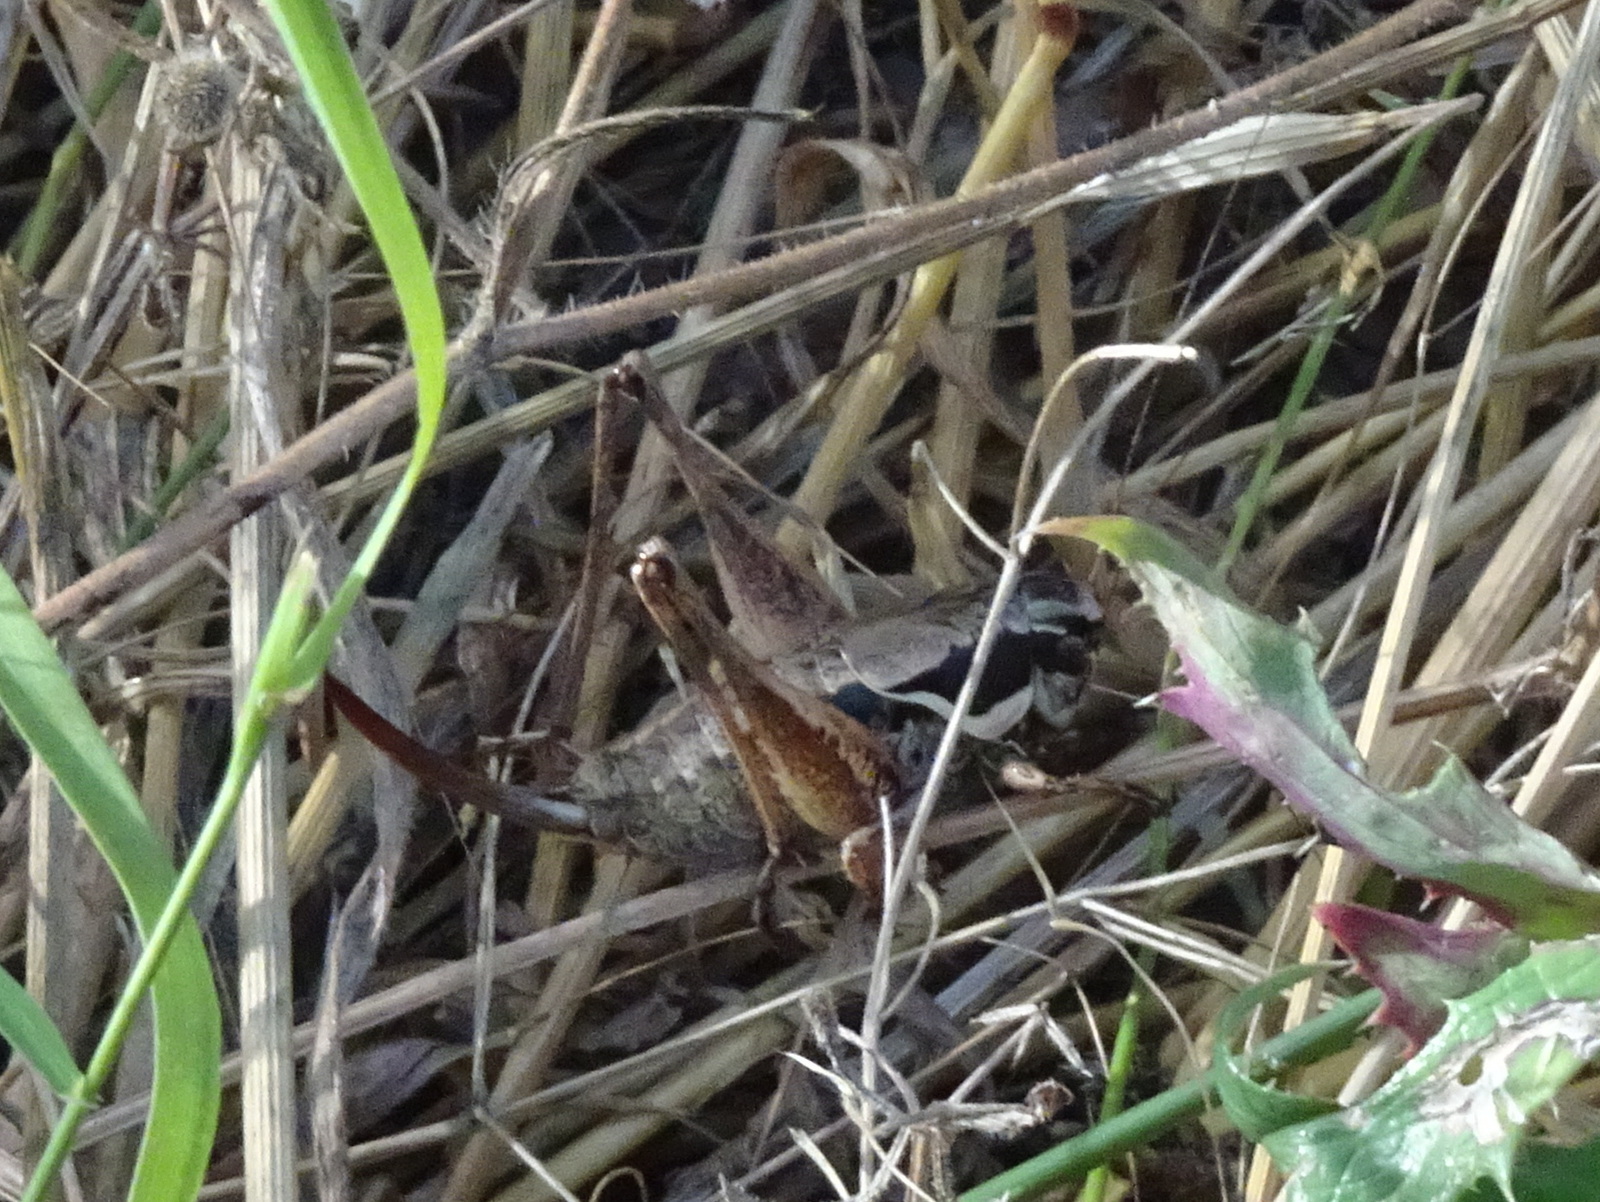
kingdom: Animalia
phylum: Arthropoda
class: Insecta
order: Orthoptera
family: Tettigoniidae
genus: Pholidoptera
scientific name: Pholidoptera femorata
